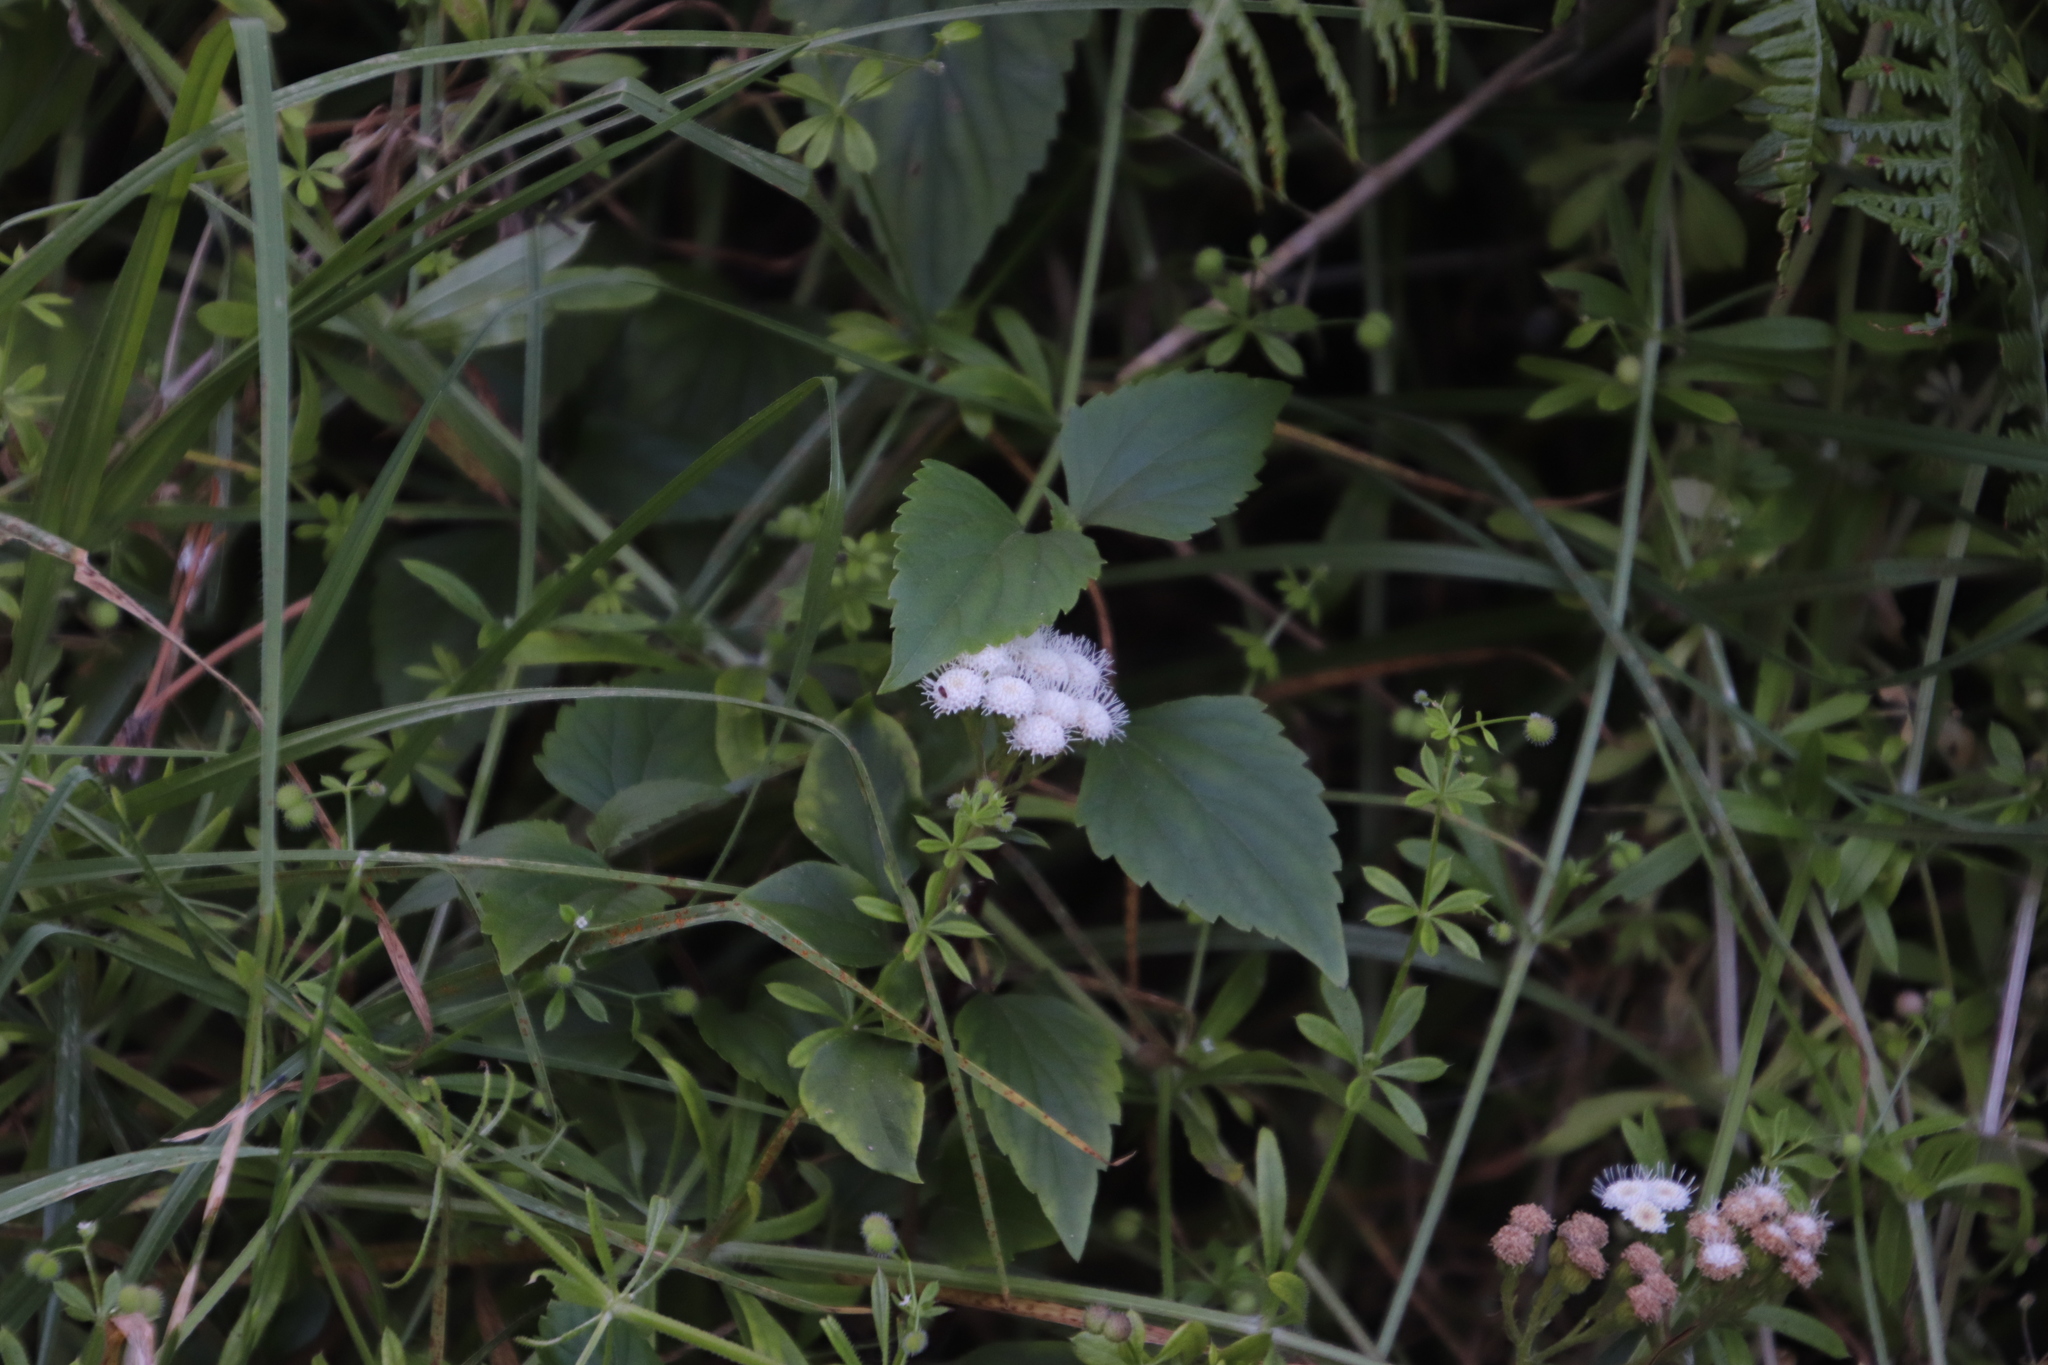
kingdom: Plantae
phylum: Tracheophyta
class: Magnoliopsida
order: Asterales
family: Asteraceae
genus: Ageratina
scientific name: Ageratina adenophora
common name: Sticky snakeroot
